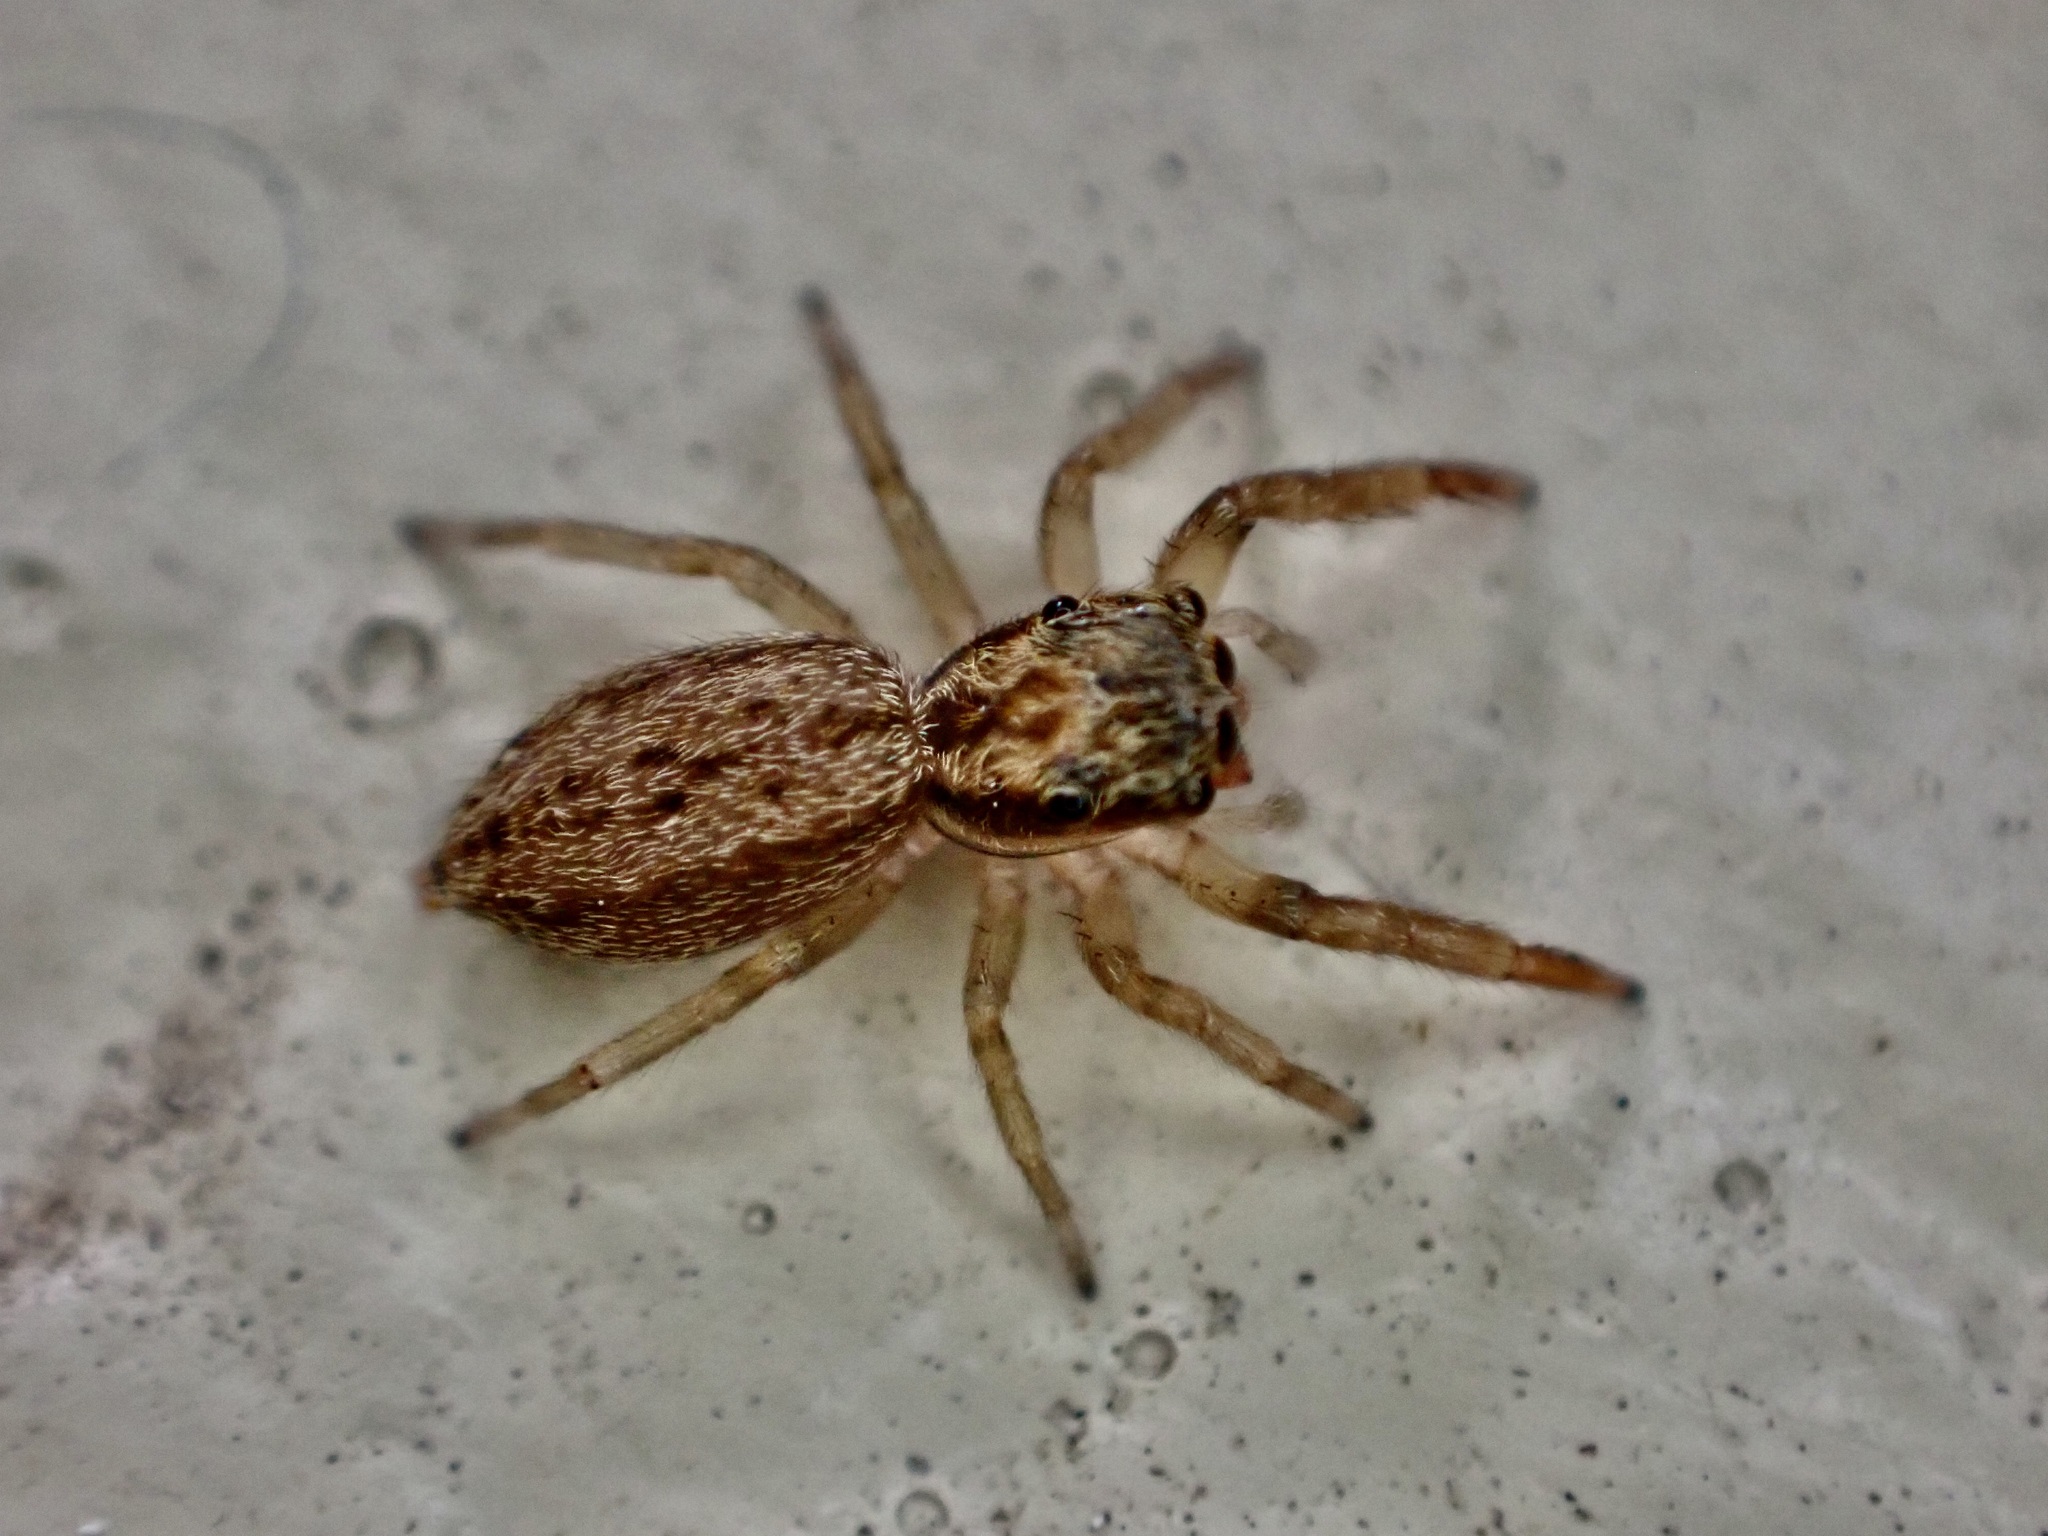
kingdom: Animalia
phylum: Arthropoda
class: Arachnida
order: Araneae
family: Salticidae
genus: Trite
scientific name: Trite auricoma
